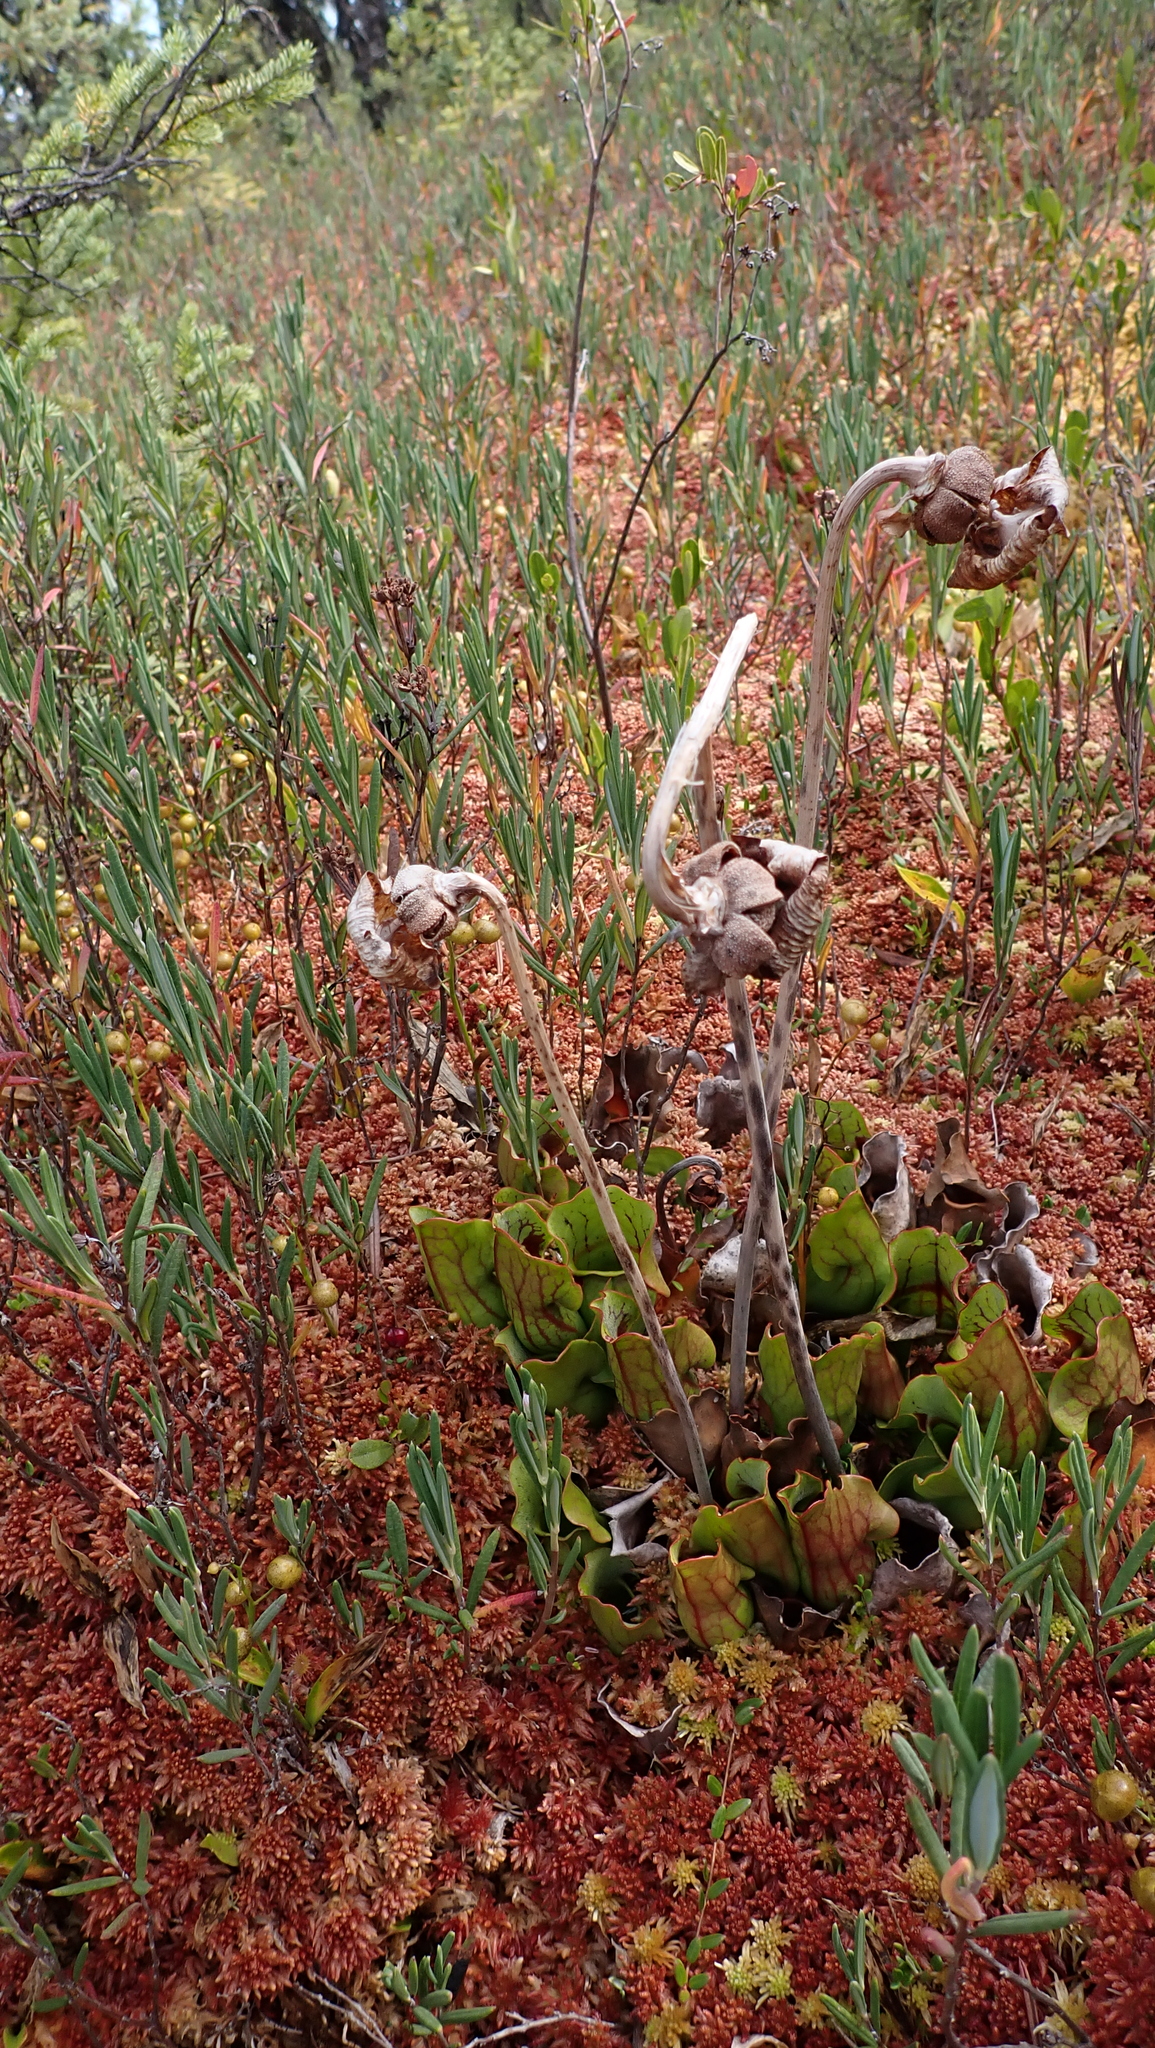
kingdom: Plantae
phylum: Tracheophyta
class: Magnoliopsida
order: Ericales
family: Sarraceniaceae
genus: Sarracenia
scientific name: Sarracenia purpurea
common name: Pitcherplant
